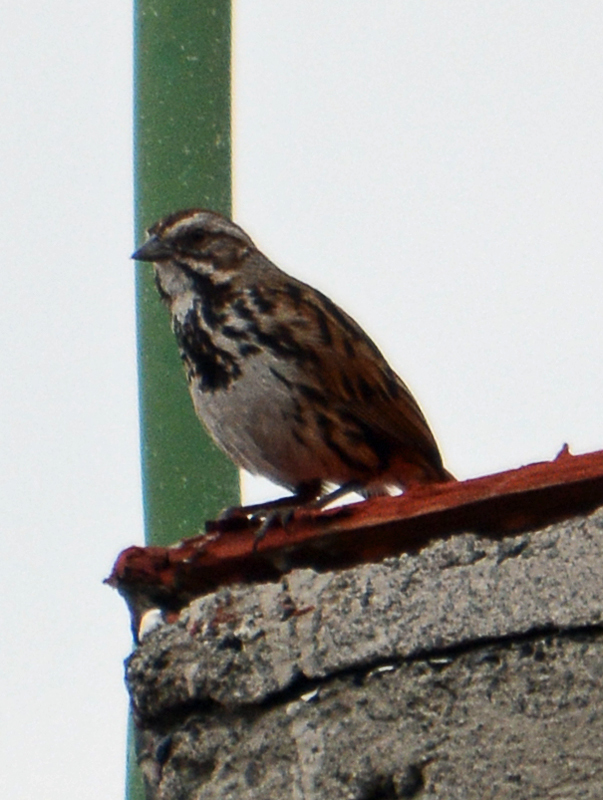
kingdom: Animalia
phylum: Chordata
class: Aves
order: Passeriformes
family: Passerellidae
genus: Melospiza
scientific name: Melospiza melodia
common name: Song sparrow
